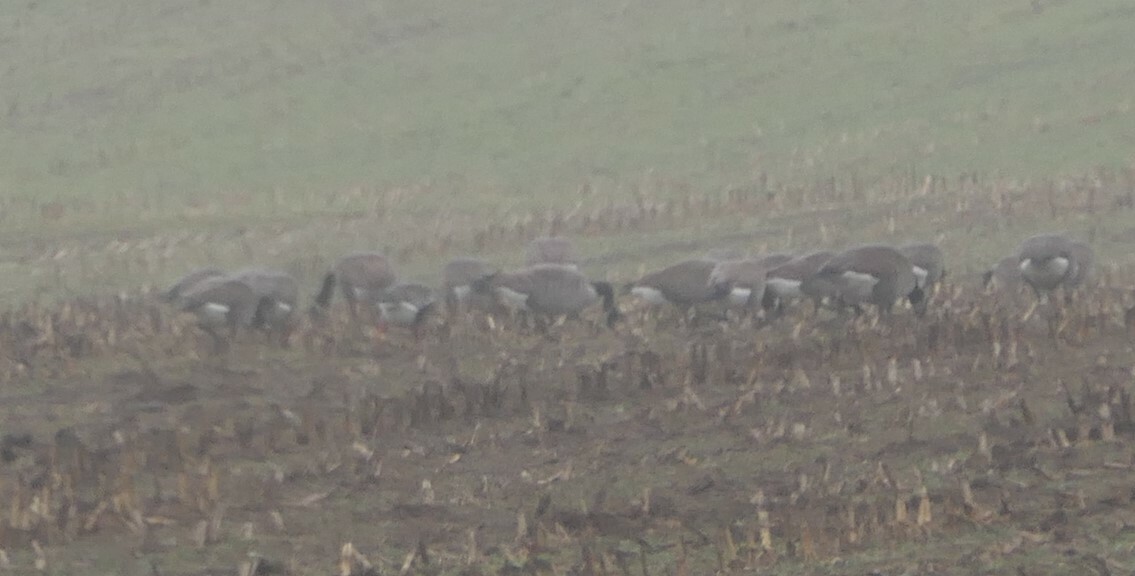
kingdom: Animalia
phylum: Chordata
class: Aves
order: Anseriformes
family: Anatidae
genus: Anser
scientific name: Anser albifrons
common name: Greater white-fronted goose
